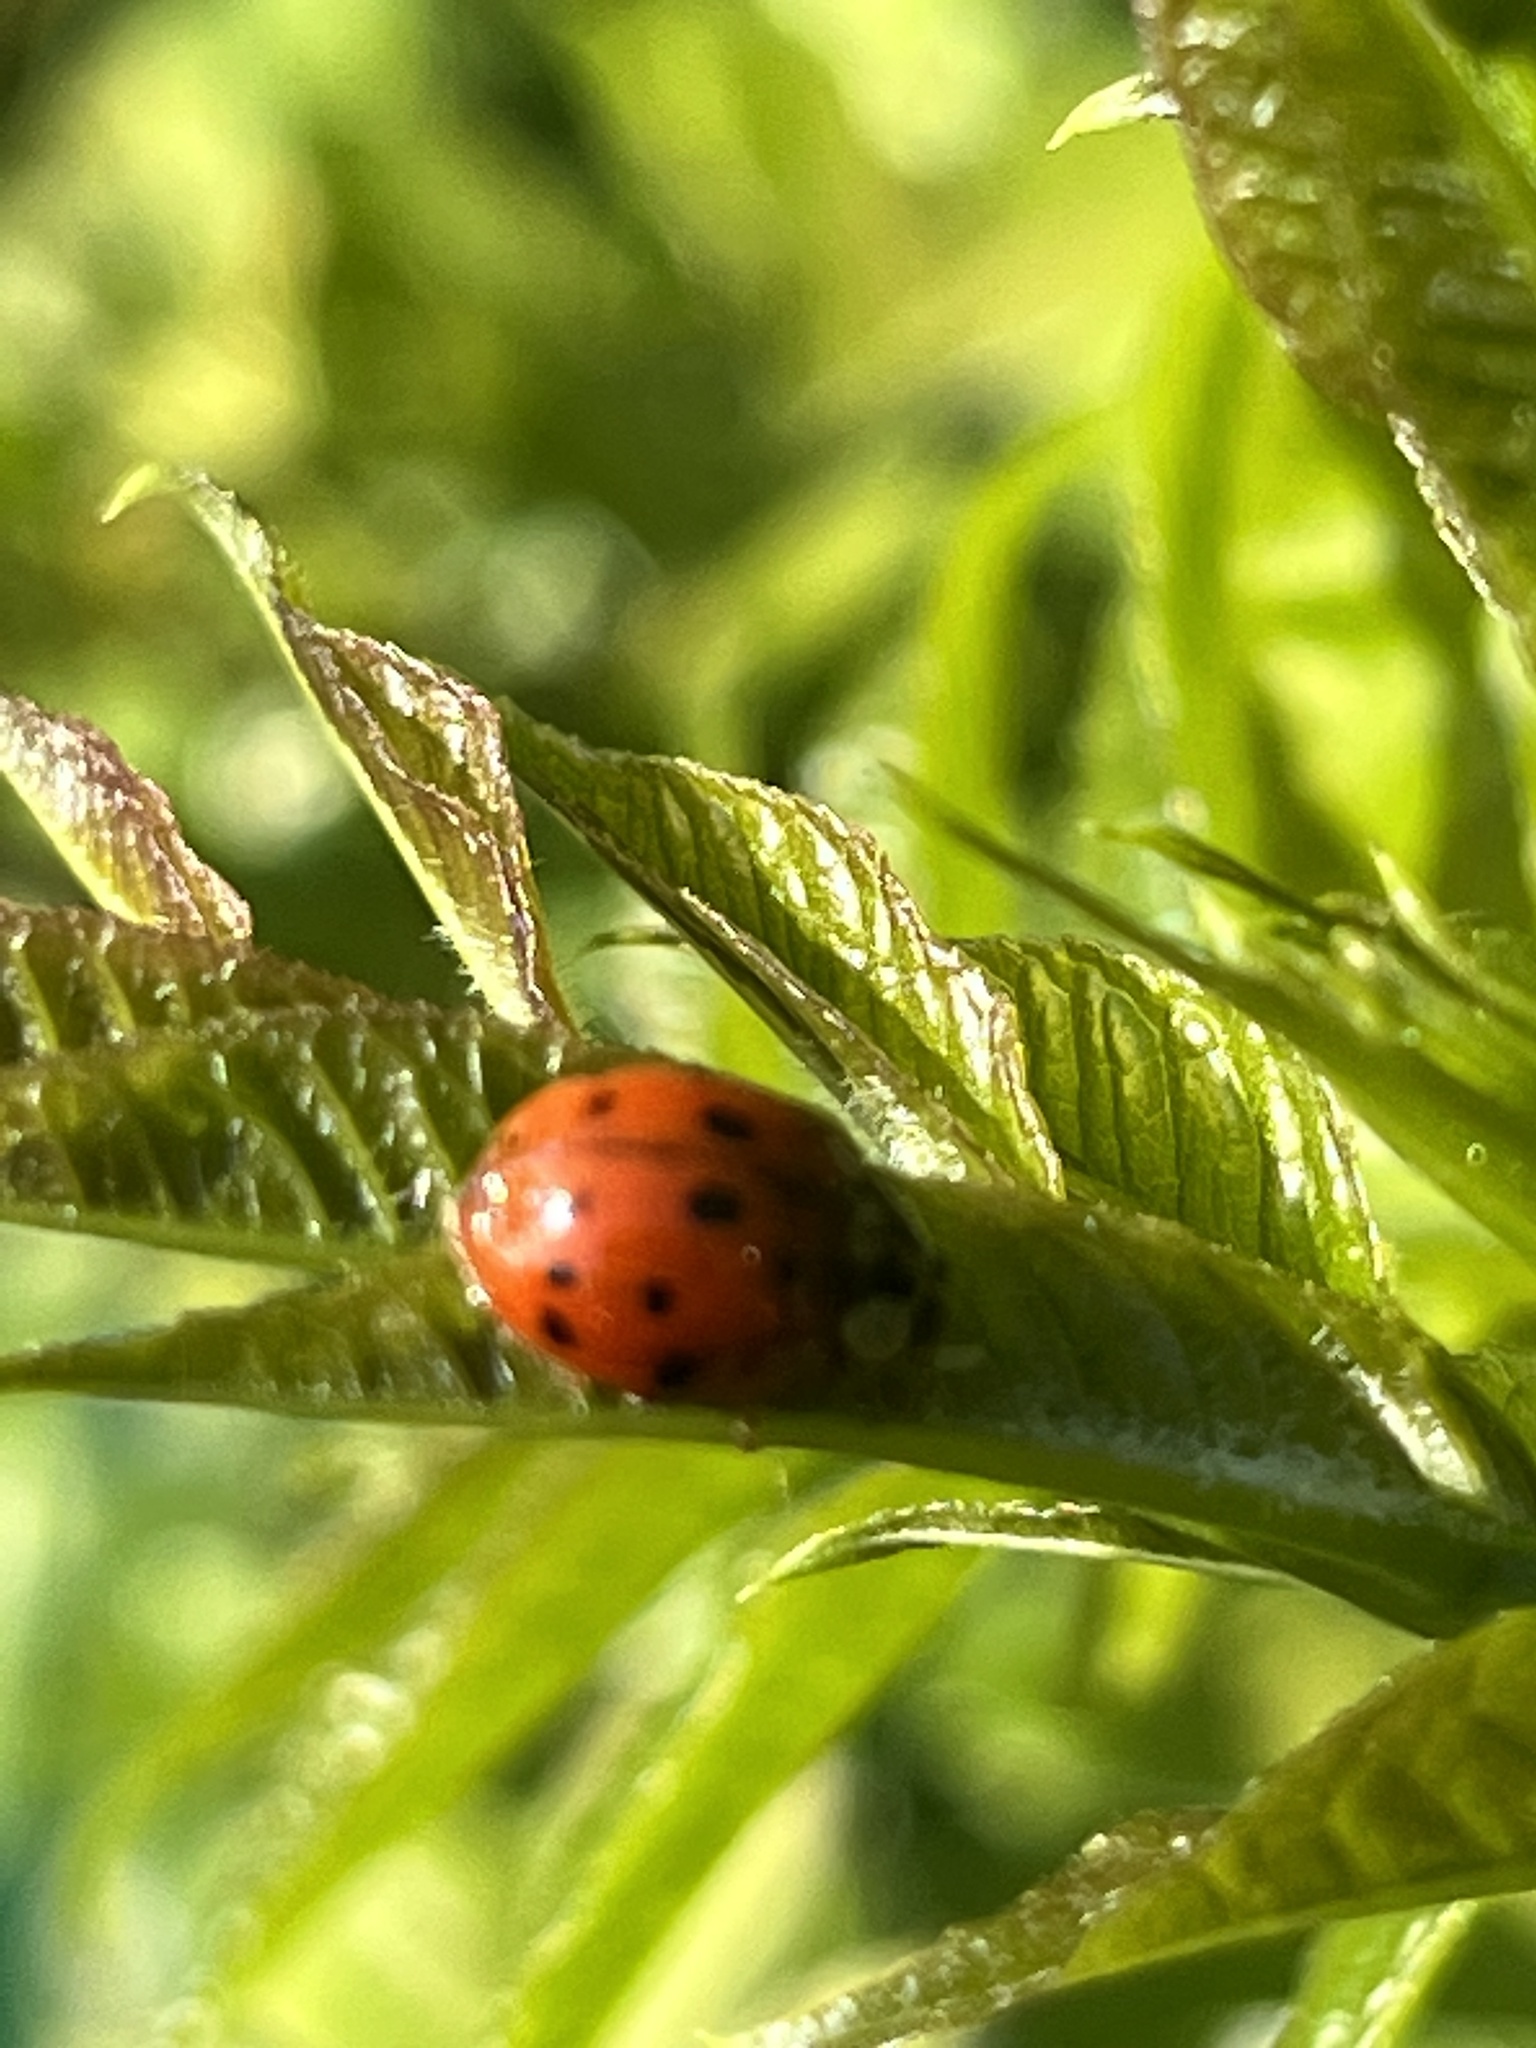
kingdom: Animalia
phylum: Arthropoda
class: Insecta
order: Coleoptera
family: Coccinellidae
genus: Harmonia
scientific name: Harmonia axyridis
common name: Harlequin ladybird
